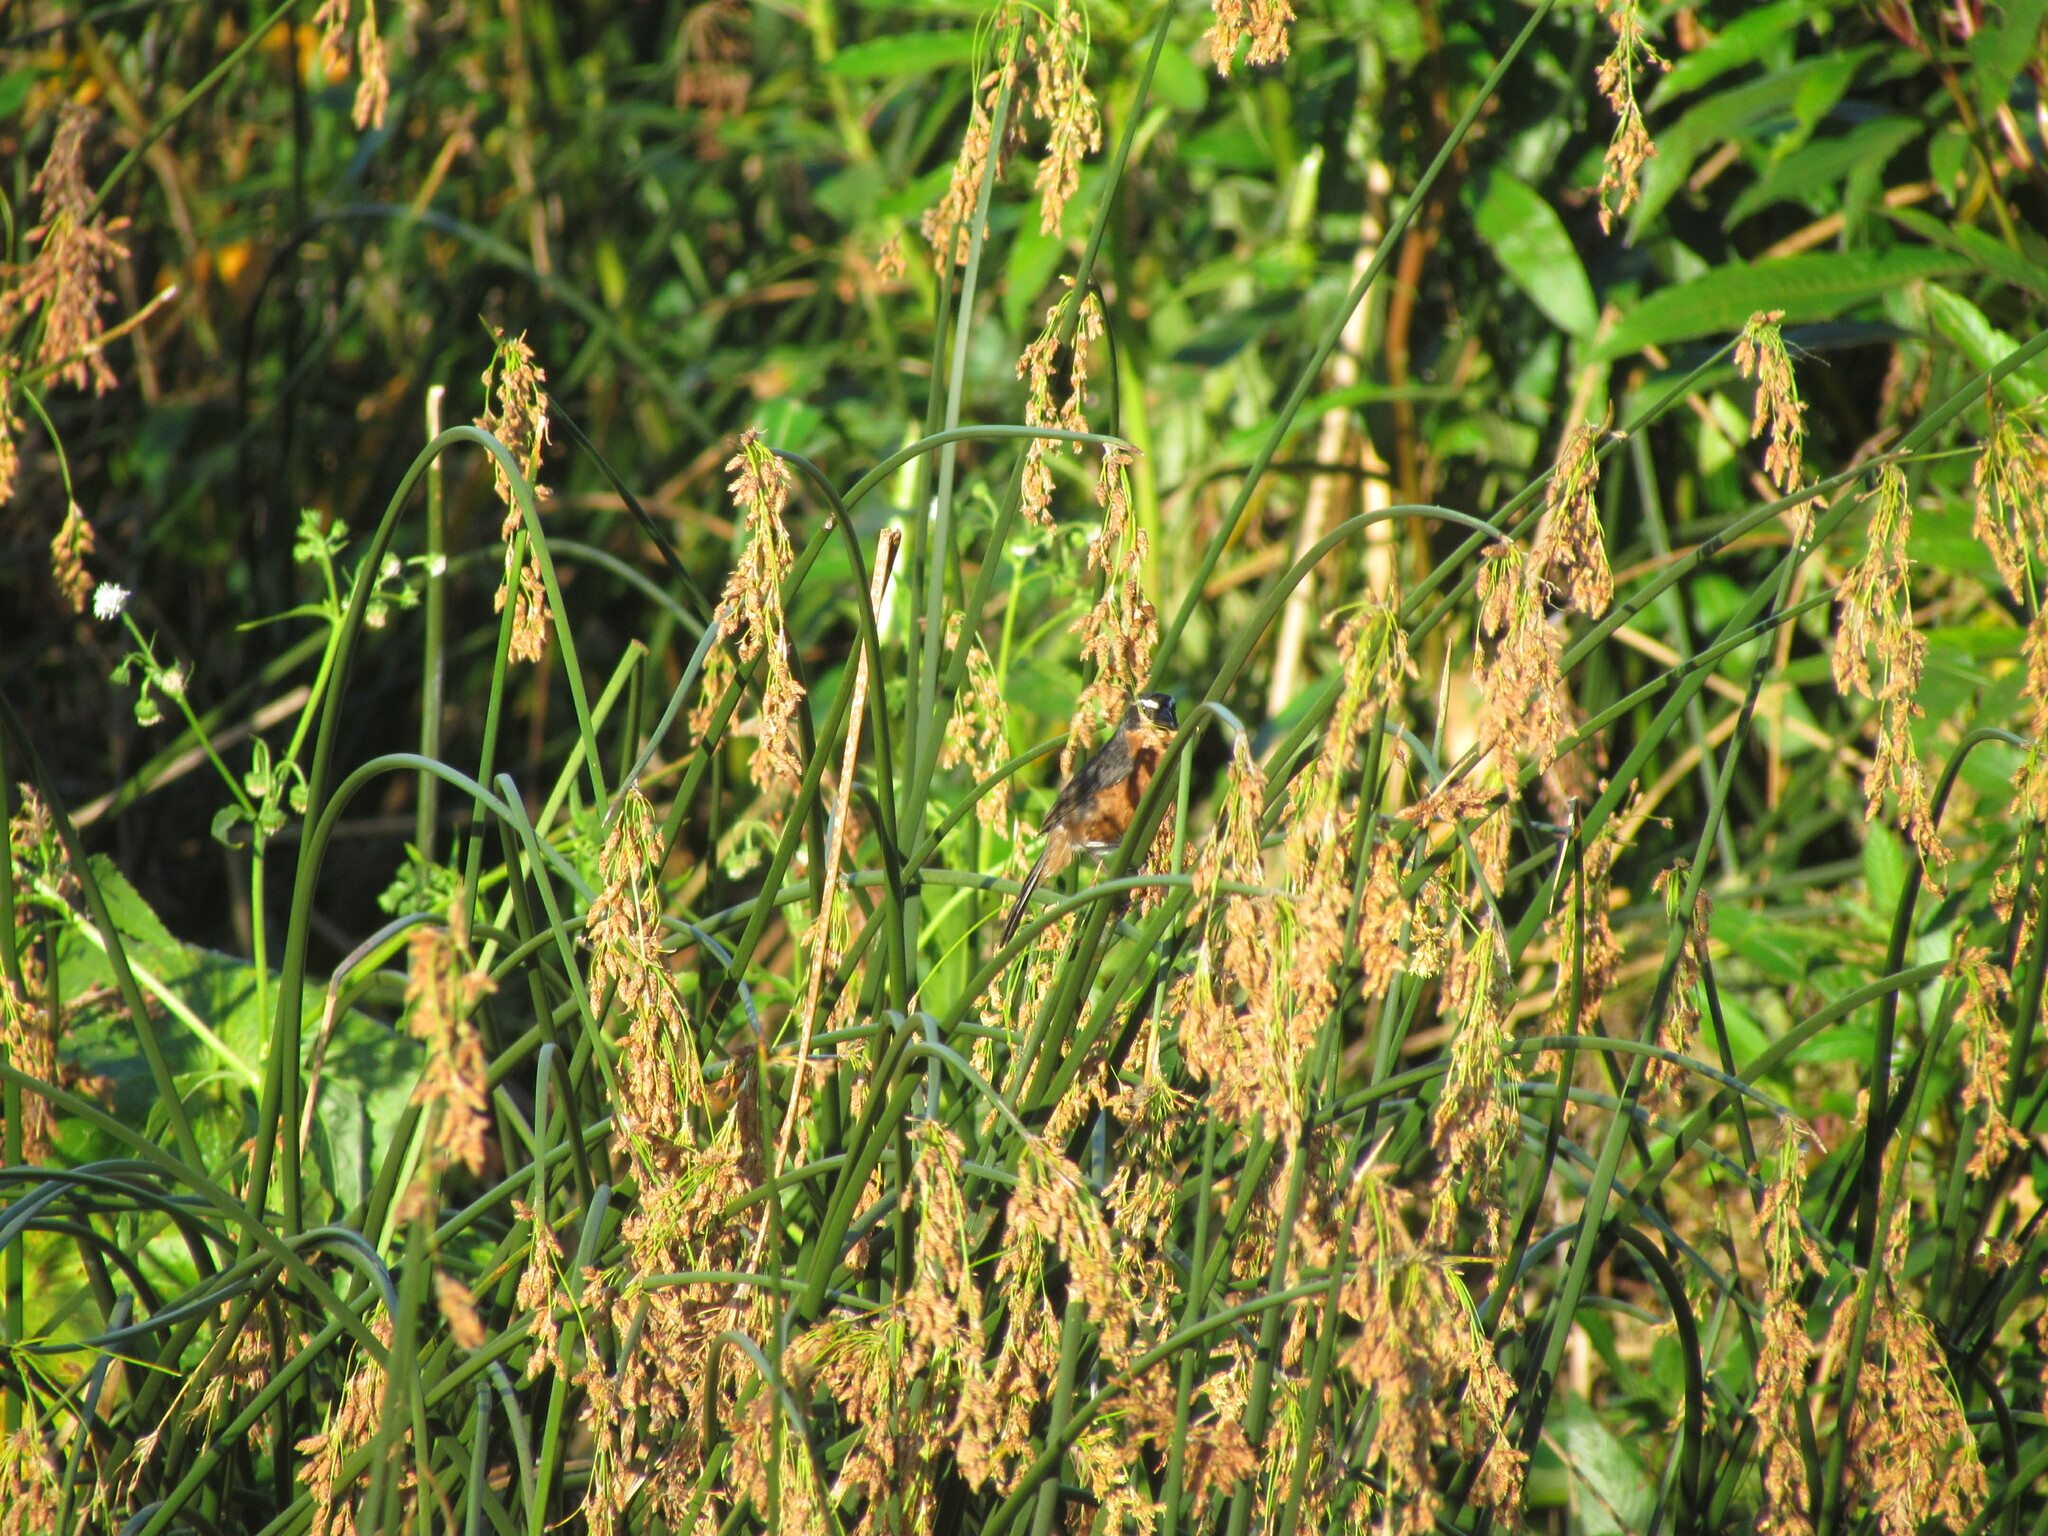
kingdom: Animalia
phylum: Chordata
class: Aves
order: Passeriformes
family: Thraupidae
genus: Poospiza
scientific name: Poospiza nigrorufa
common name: Black-and-rufous warbling finch
